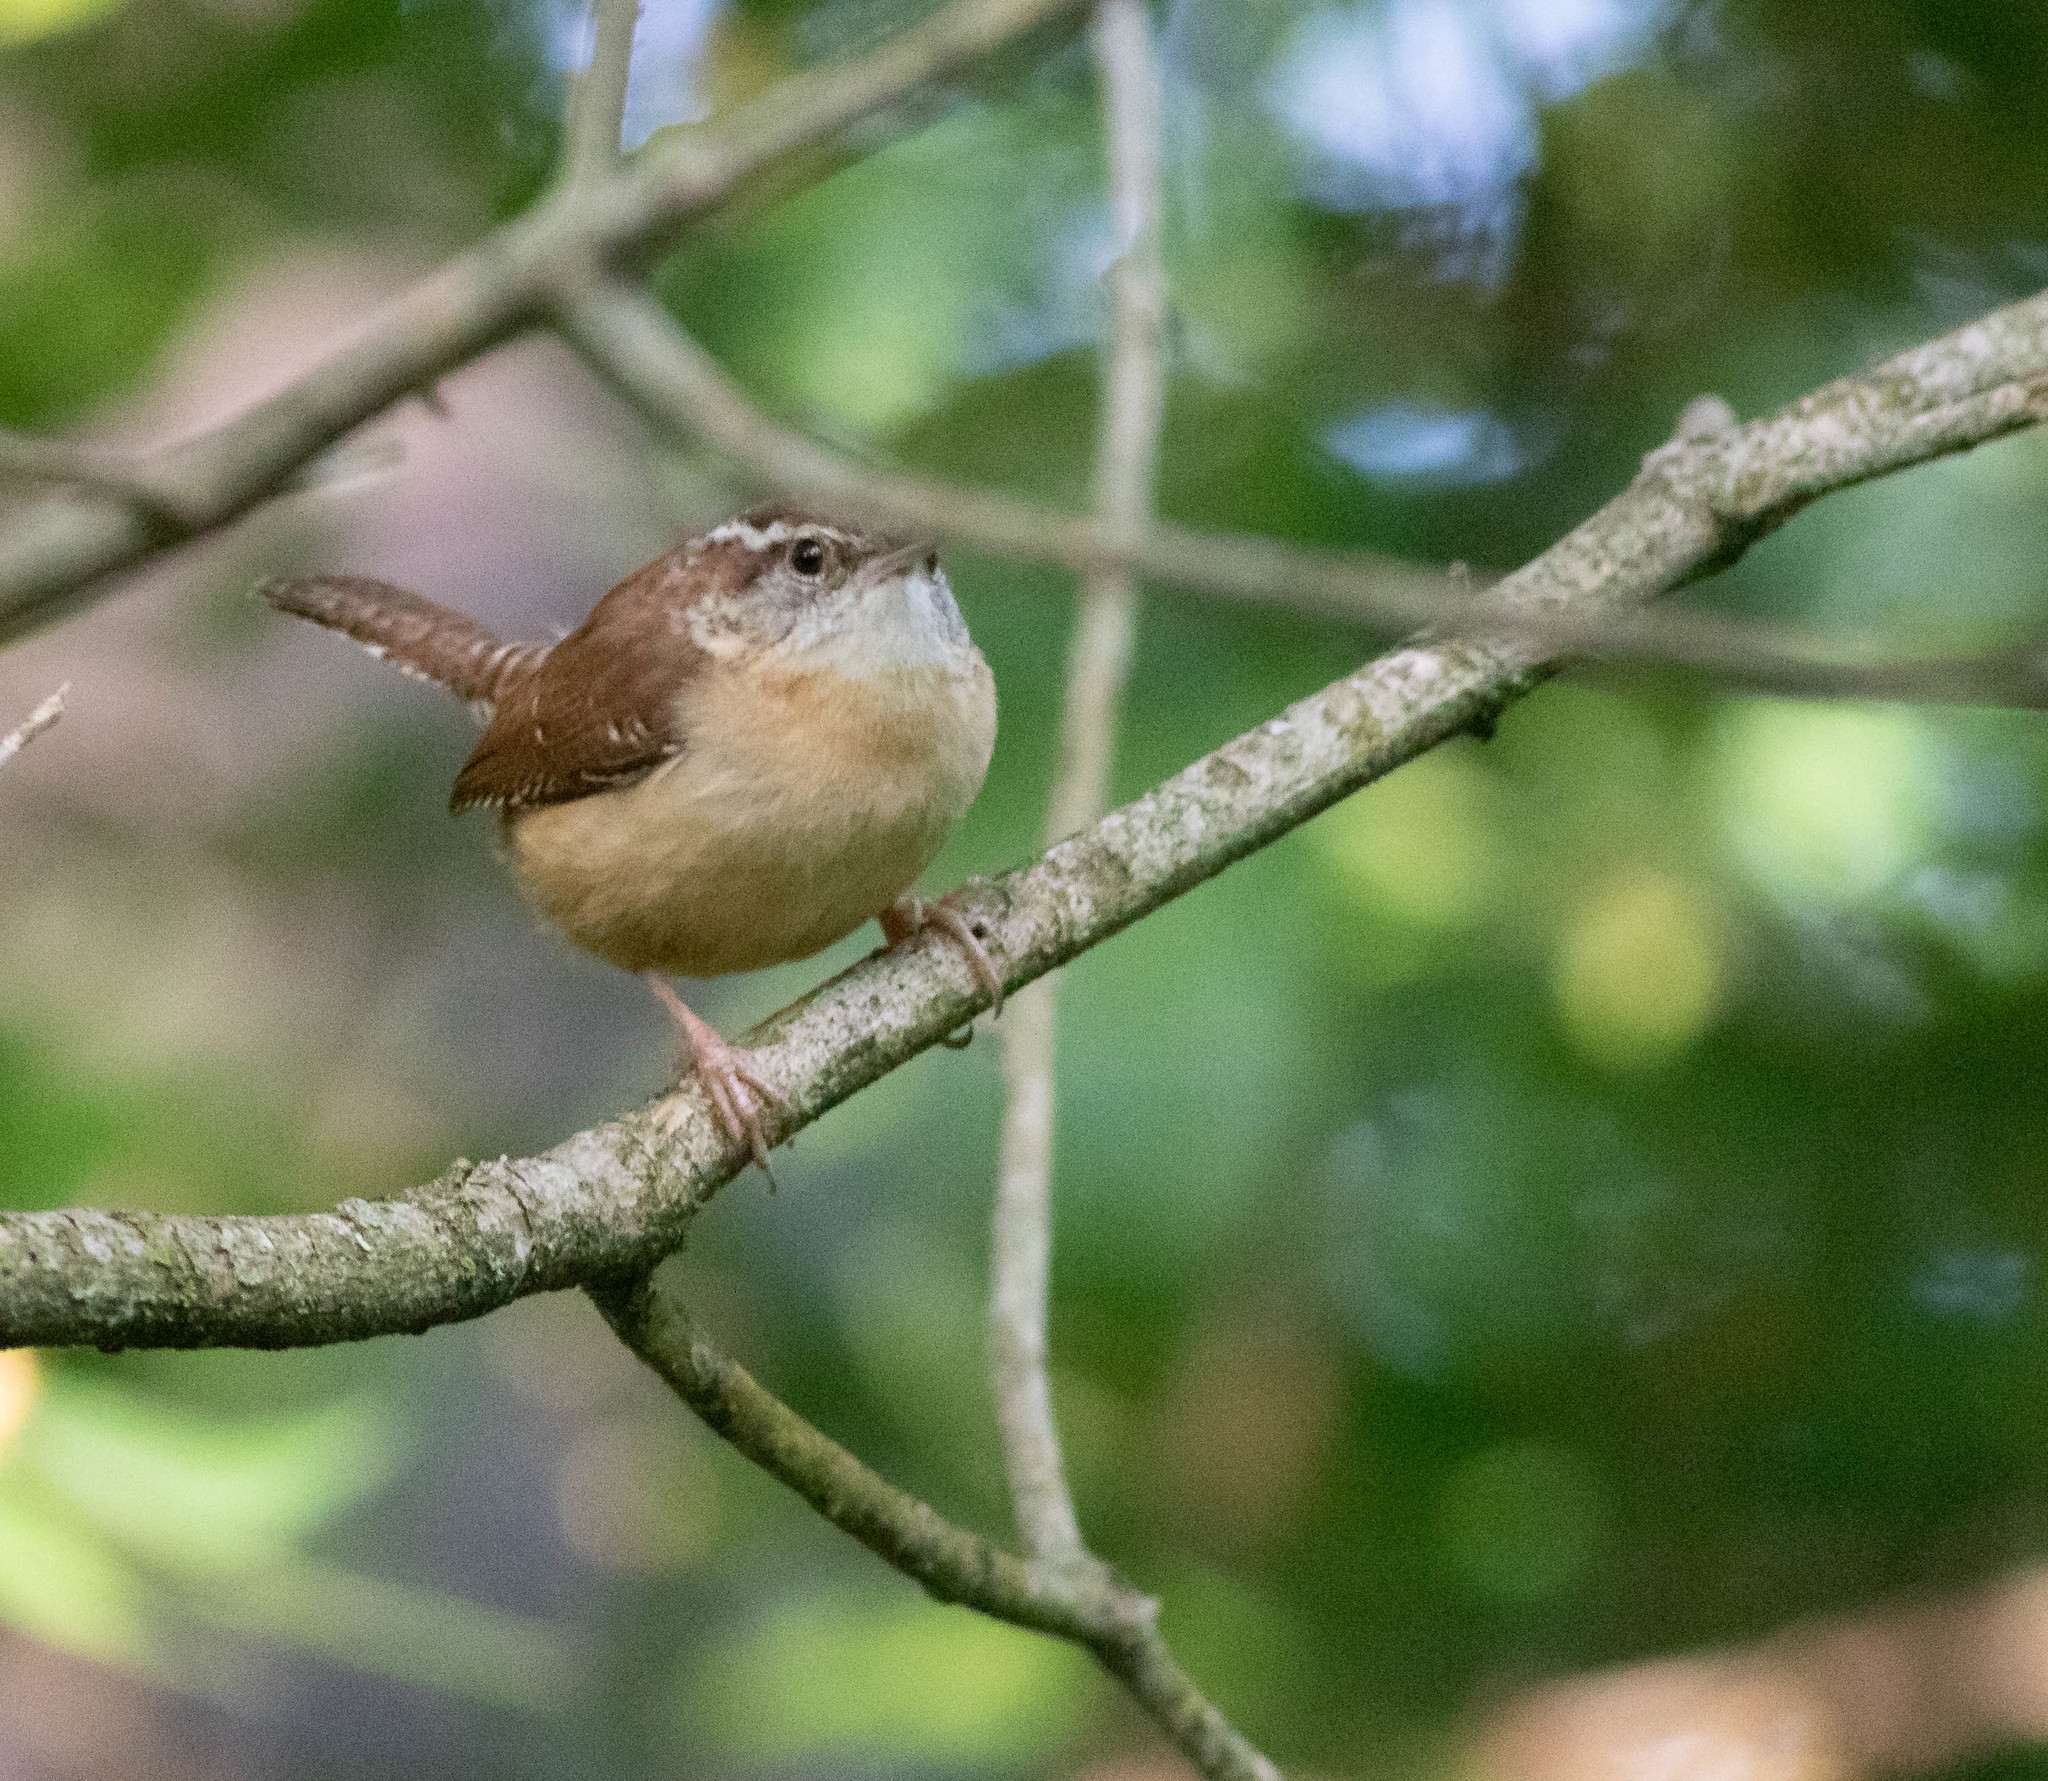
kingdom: Animalia
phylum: Chordata
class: Aves
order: Passeriformes
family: Troglodytidae
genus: Thryothorus
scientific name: Thryothorus ludovicianus
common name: Carolina wren
